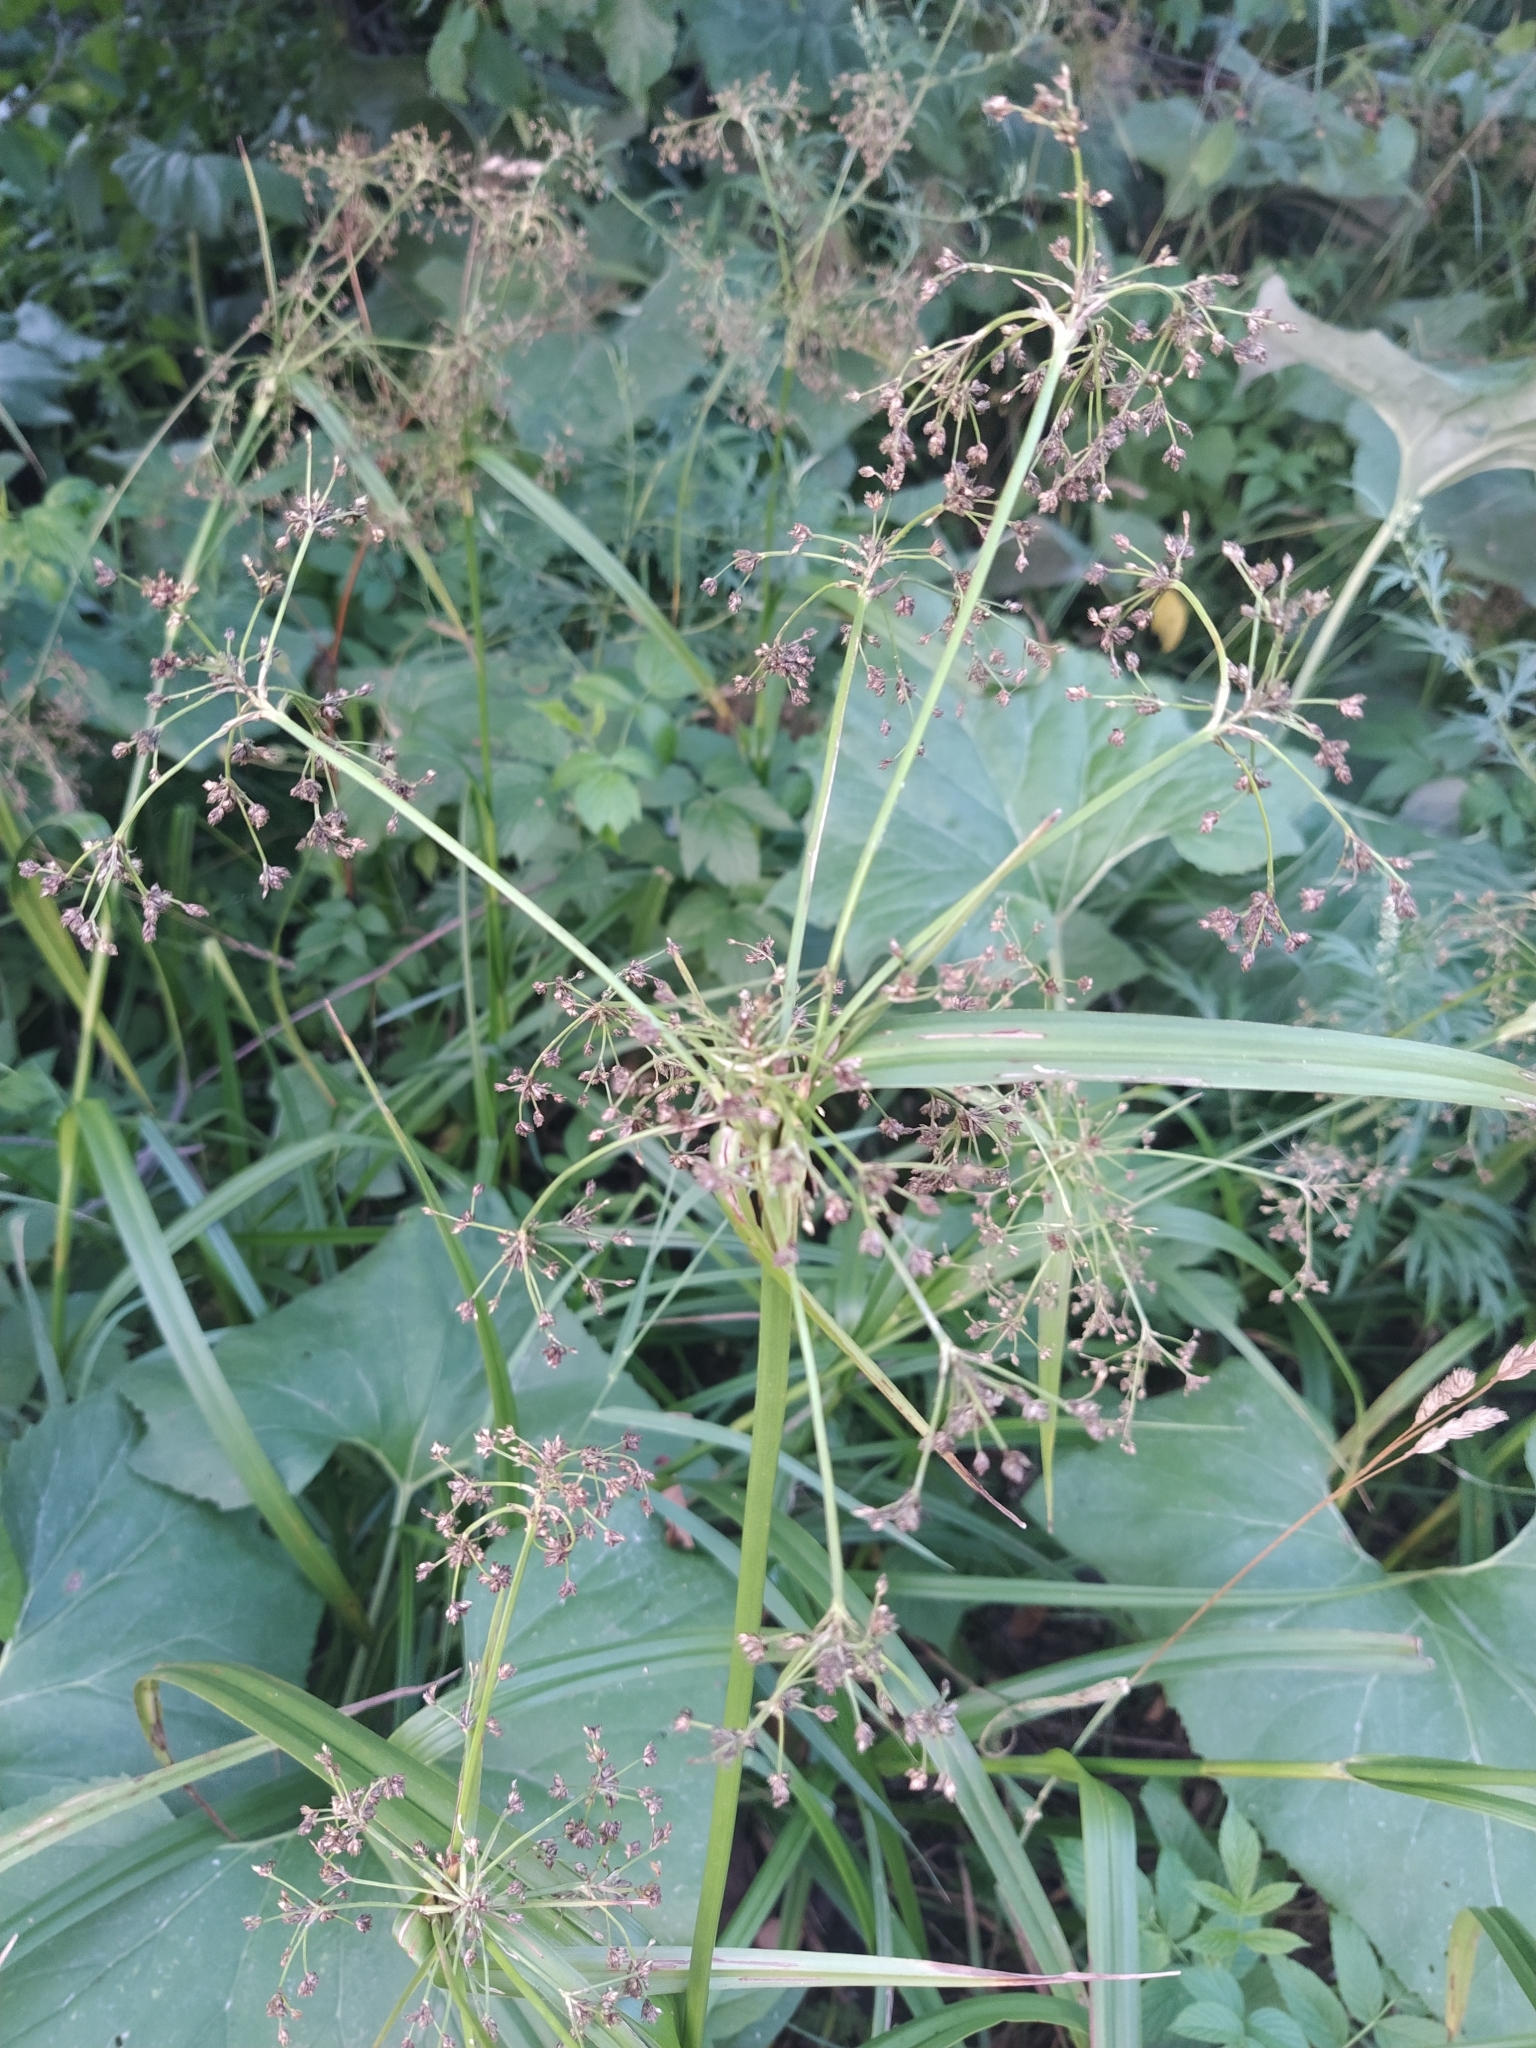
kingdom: Plantae
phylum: Tracheophyta
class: Liliopsida
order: Poales
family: Cyperaceae
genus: Scirpus
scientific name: Scirpus sylvaticus
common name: Wood club-rush
